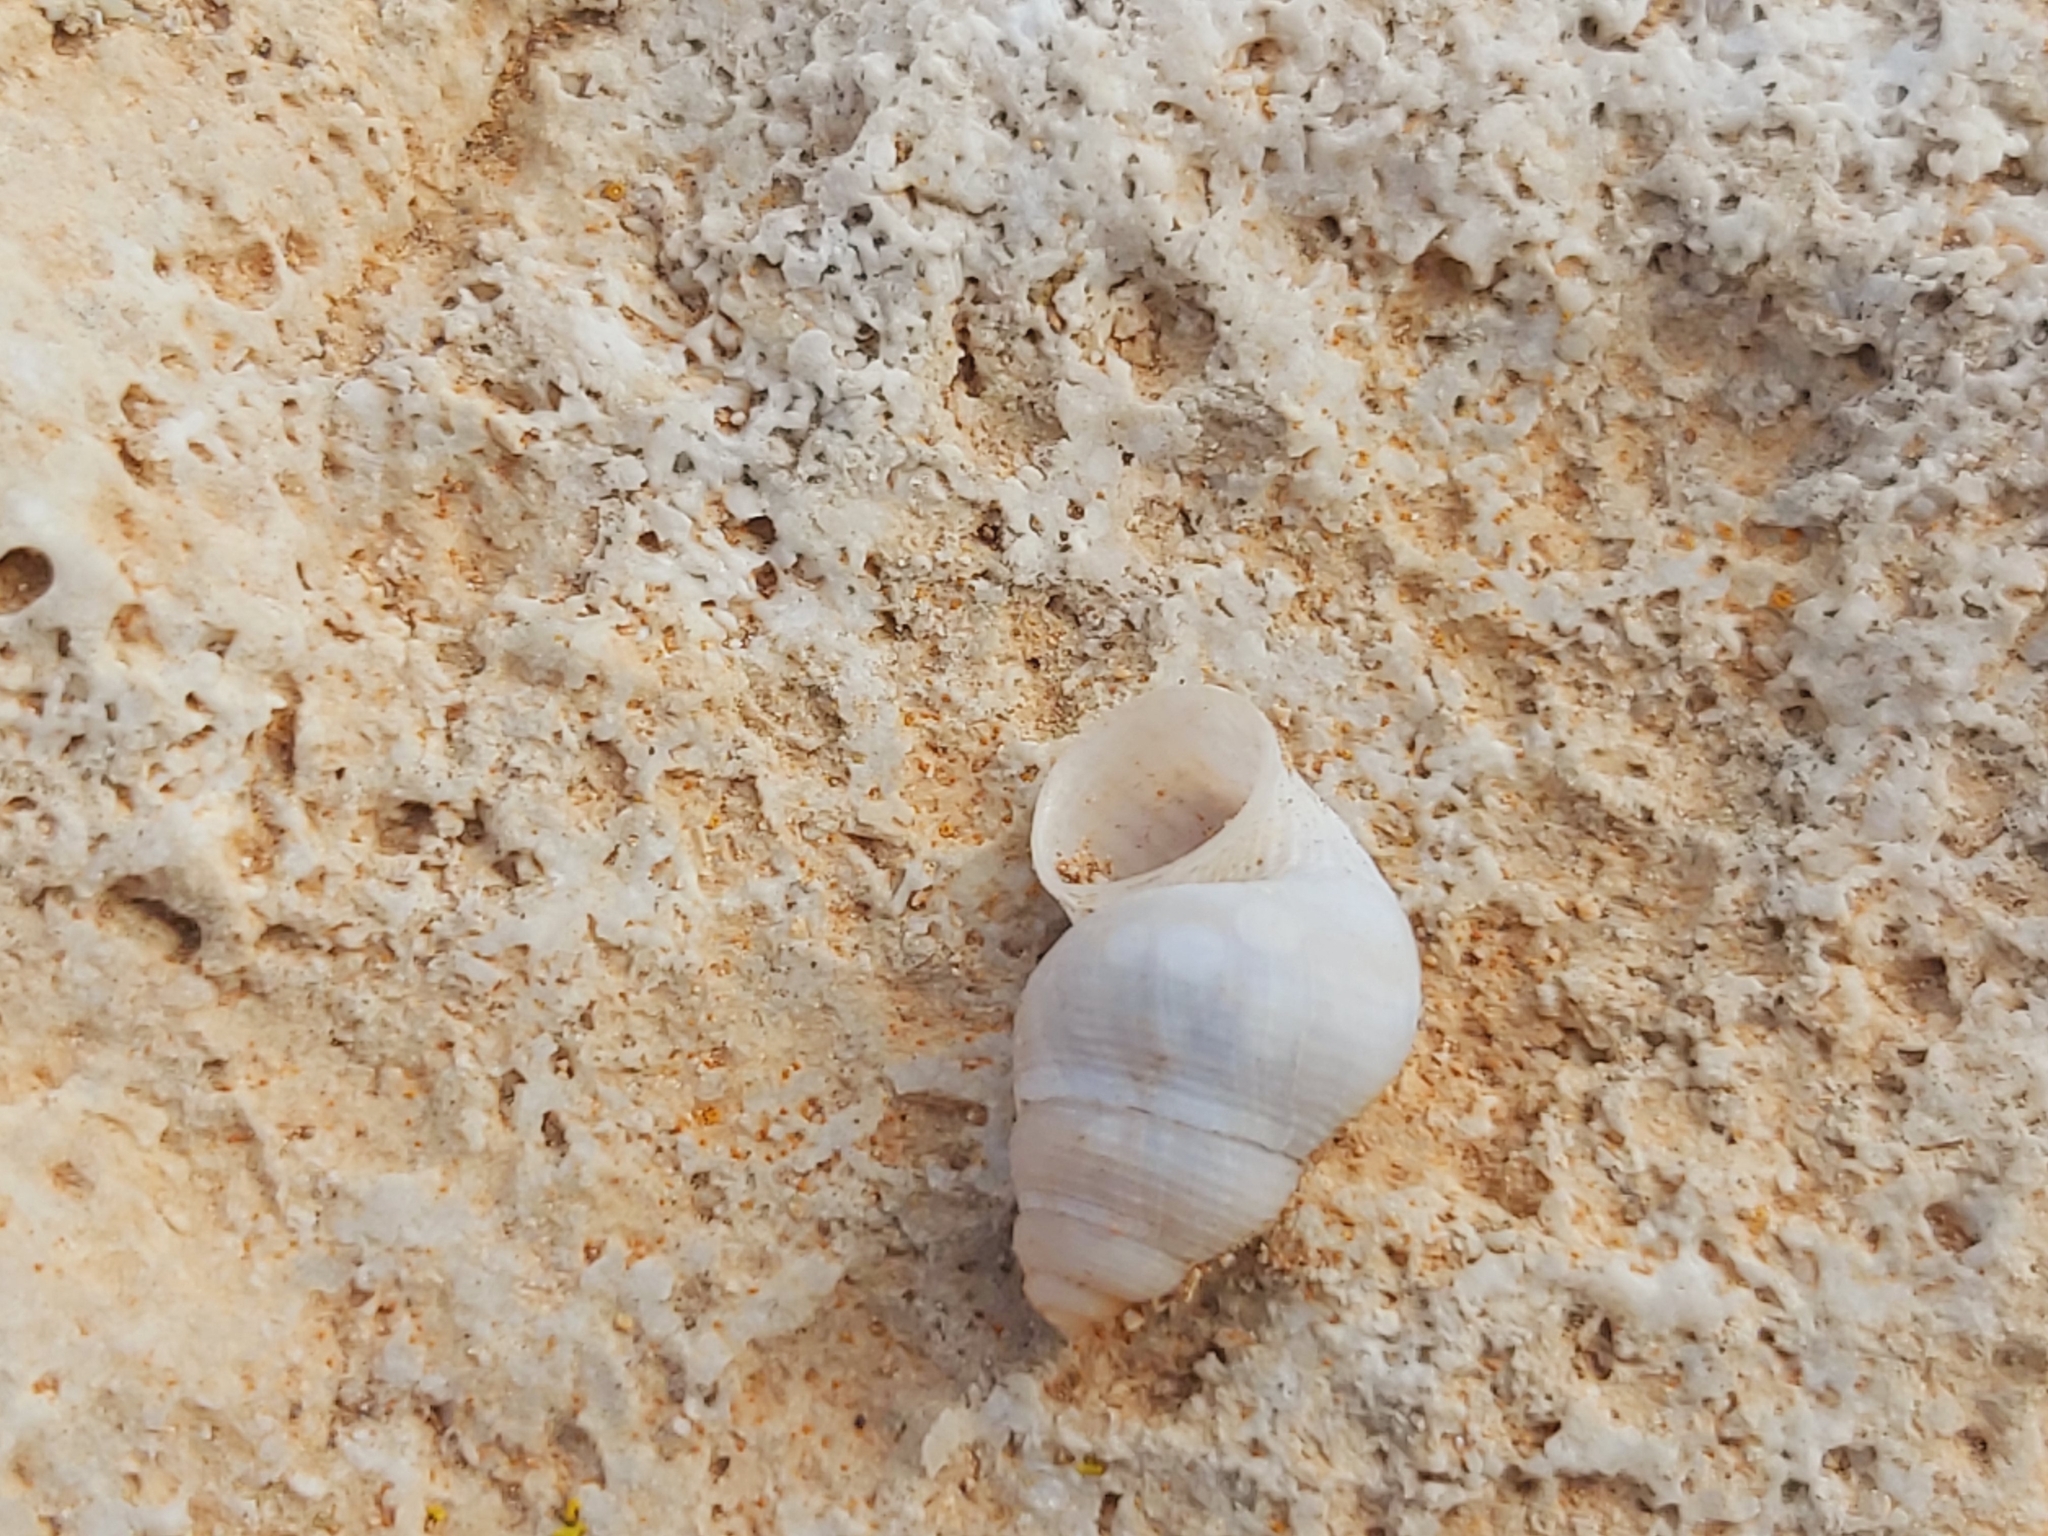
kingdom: Animalia
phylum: Mollusca
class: Gastropoda
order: Littorinimorpha
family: Pomatiidae
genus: Tudorella
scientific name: Tudorella melitensis
